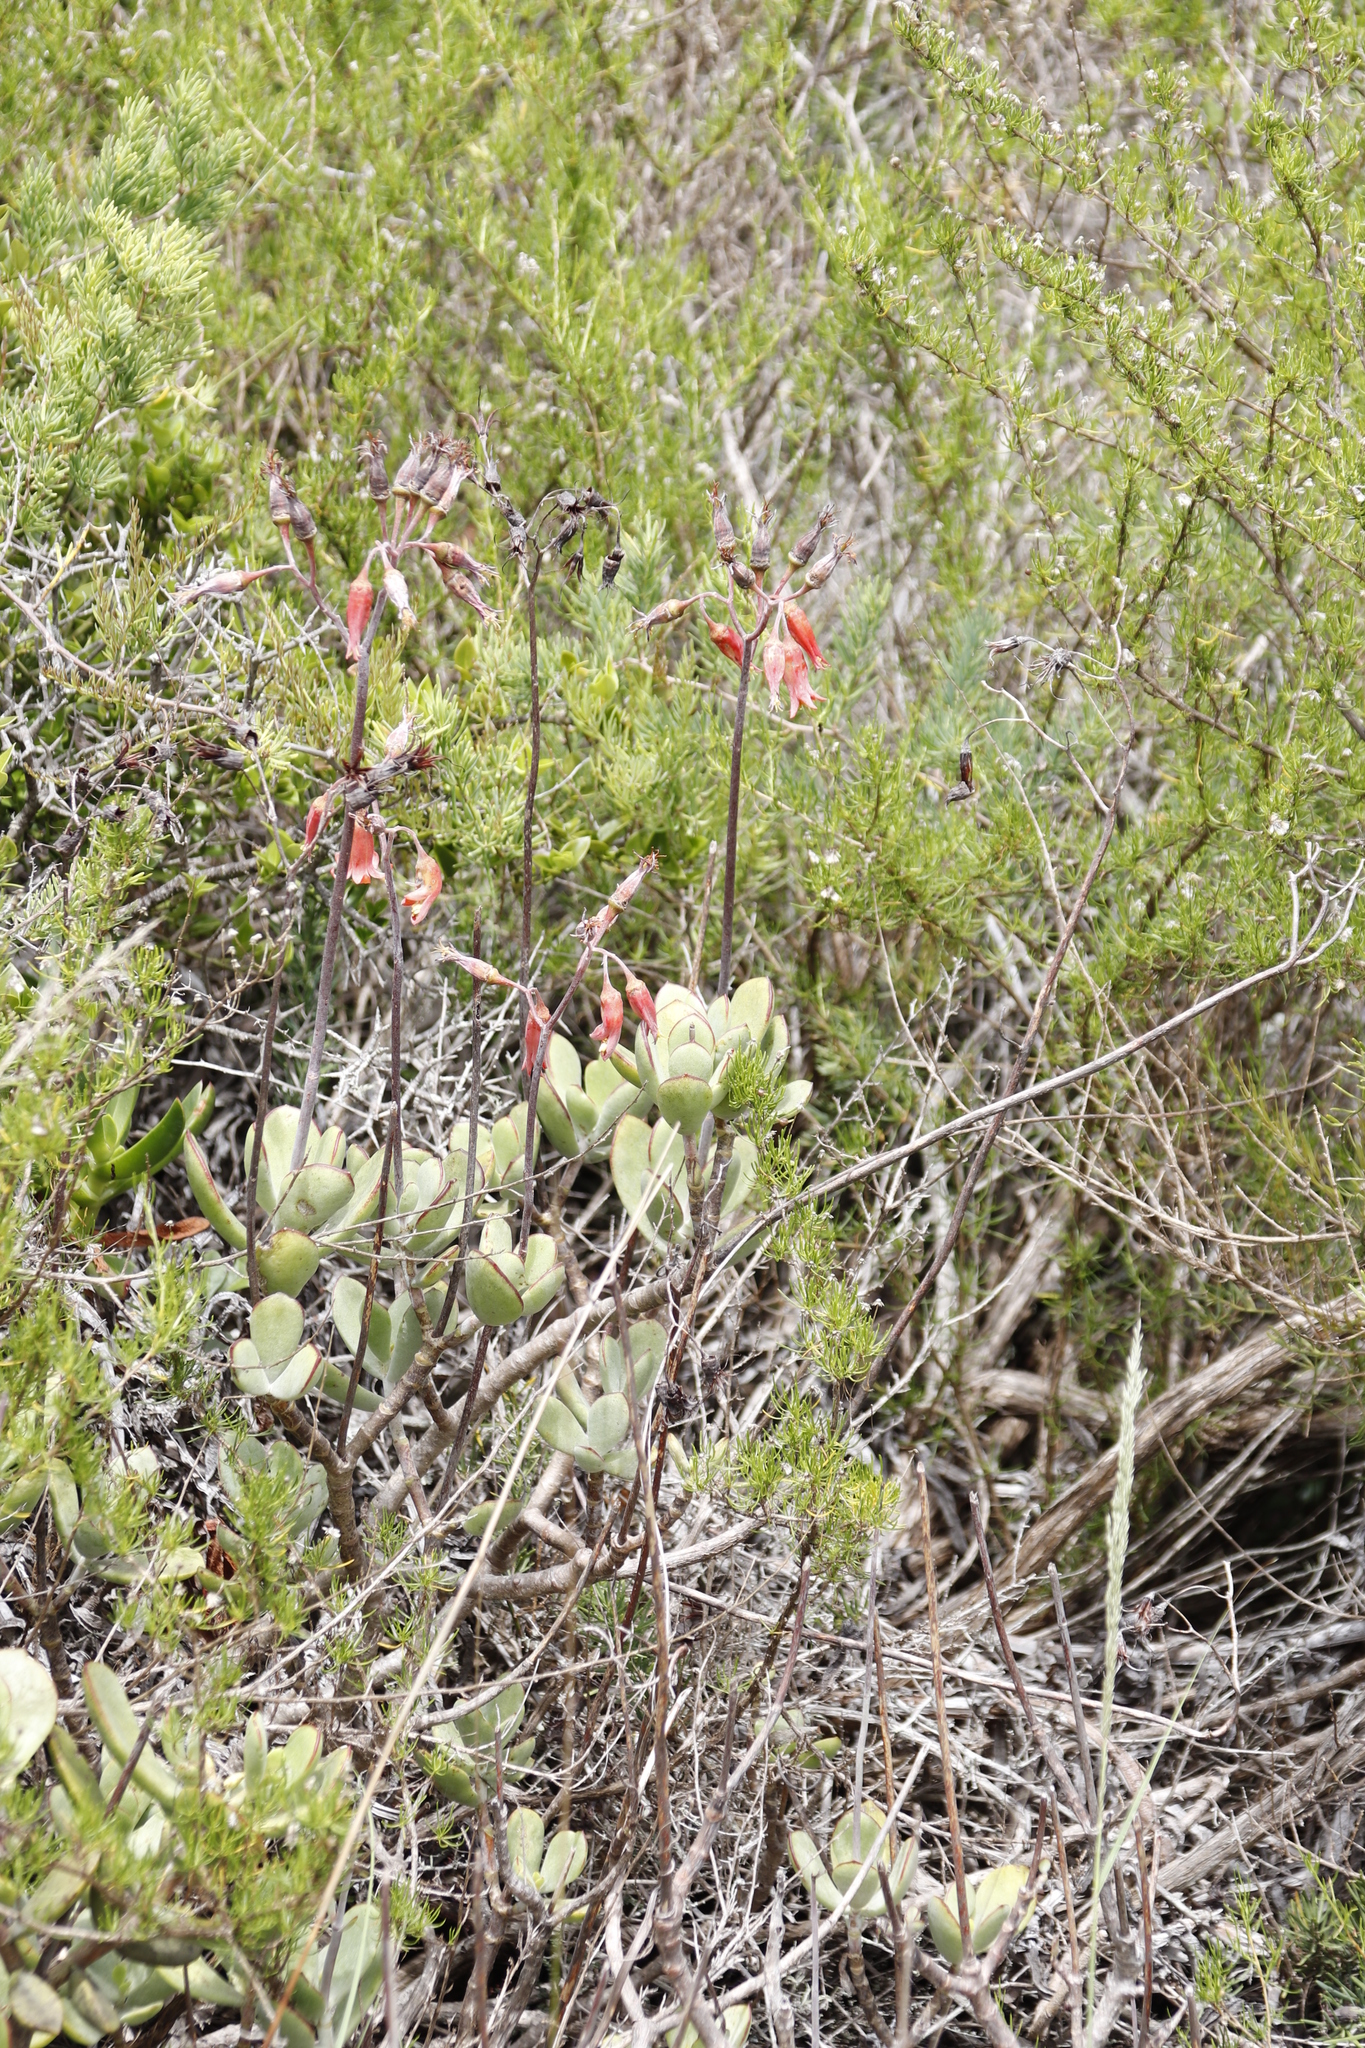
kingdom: Plantae
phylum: Tracheophyta
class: Magnoliopsida
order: Saxifragales
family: Crassulaceae
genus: Cotyledon
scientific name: Cotyledon orbiculata
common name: Pig's ear
